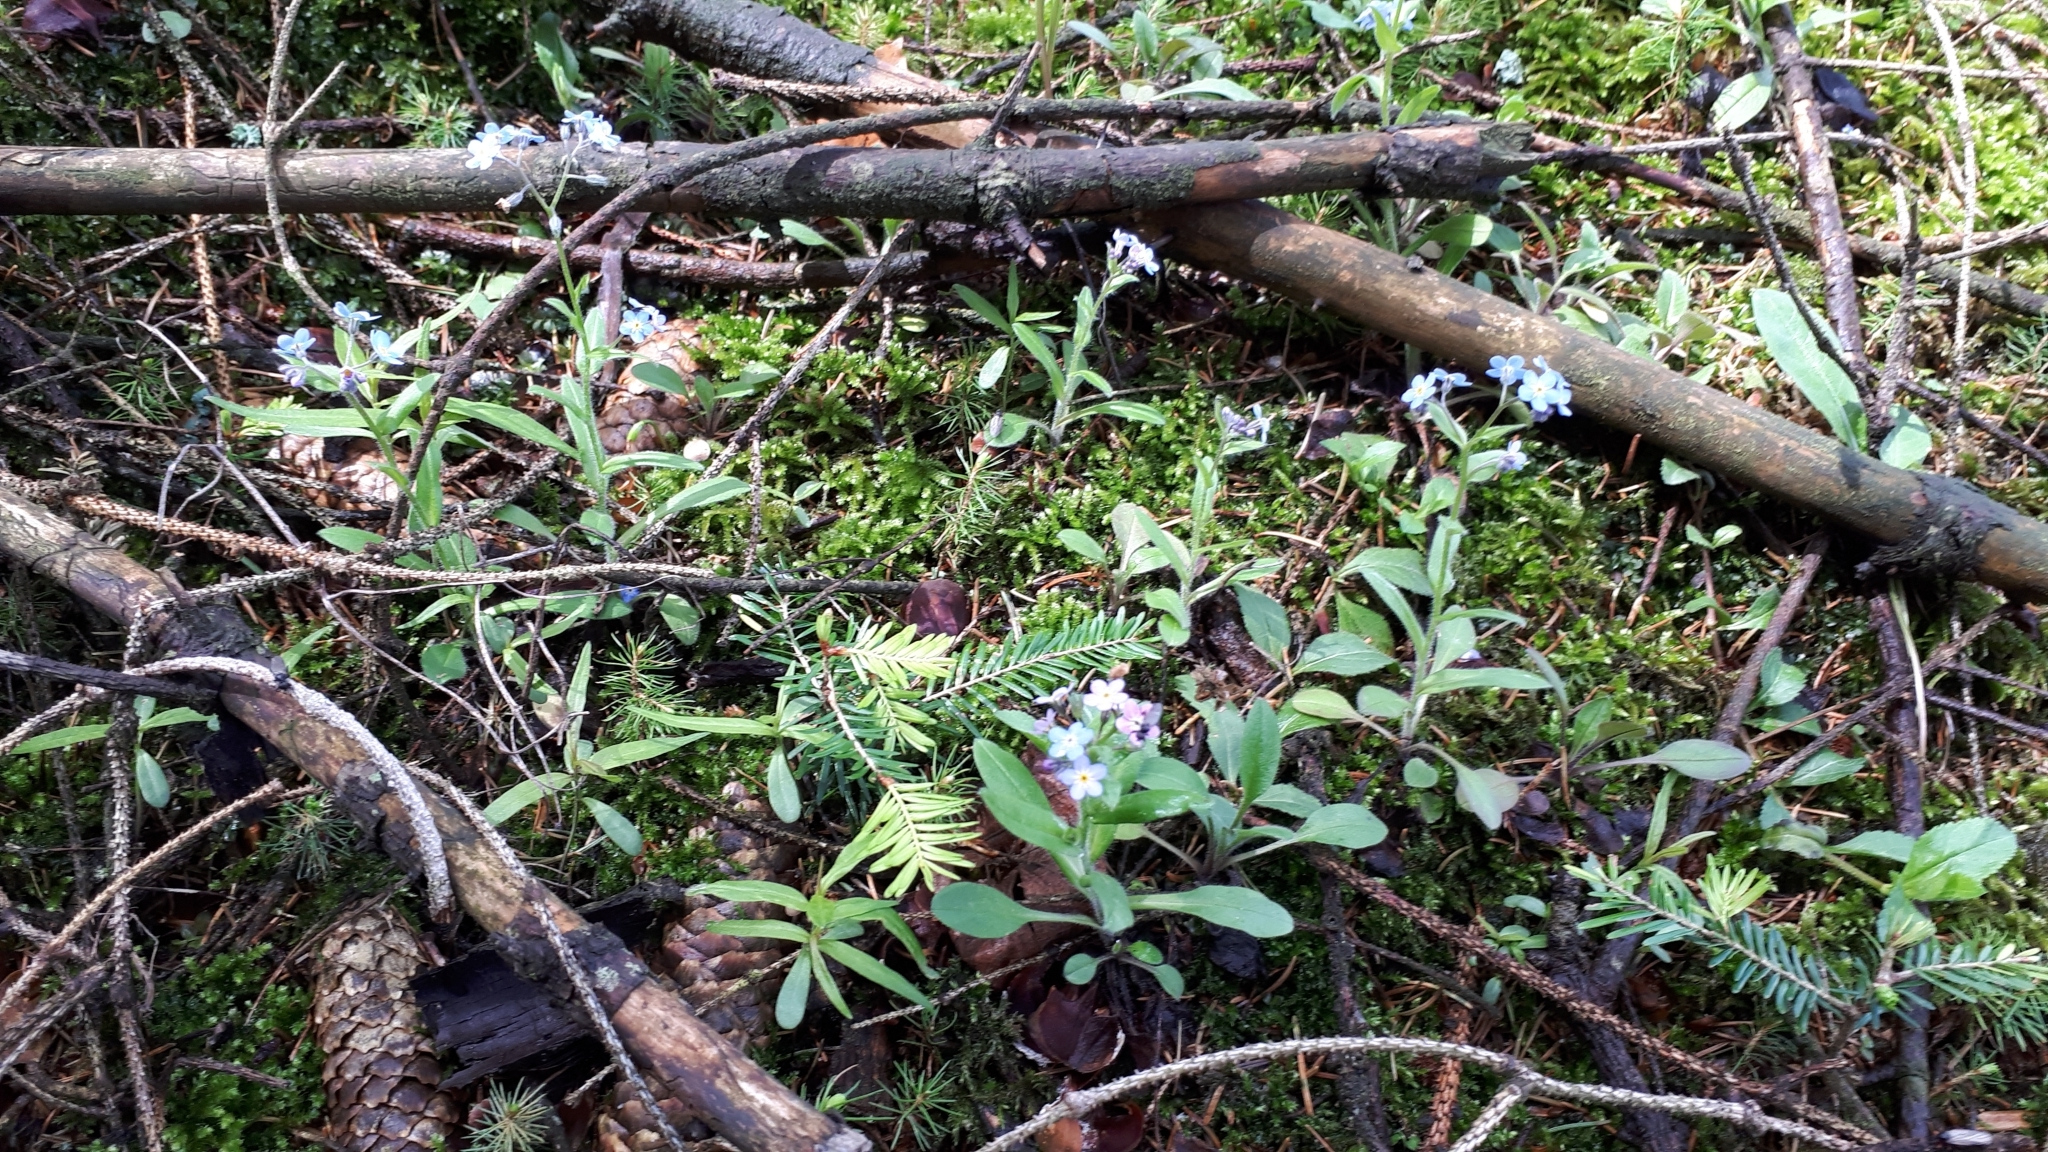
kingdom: Plantae
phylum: Tracheophyta
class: Magnoliopsida
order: Boraginales
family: Boraginaceae
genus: Myosotis
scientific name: Myosotis sylvatica
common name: Wood forget-me-not
